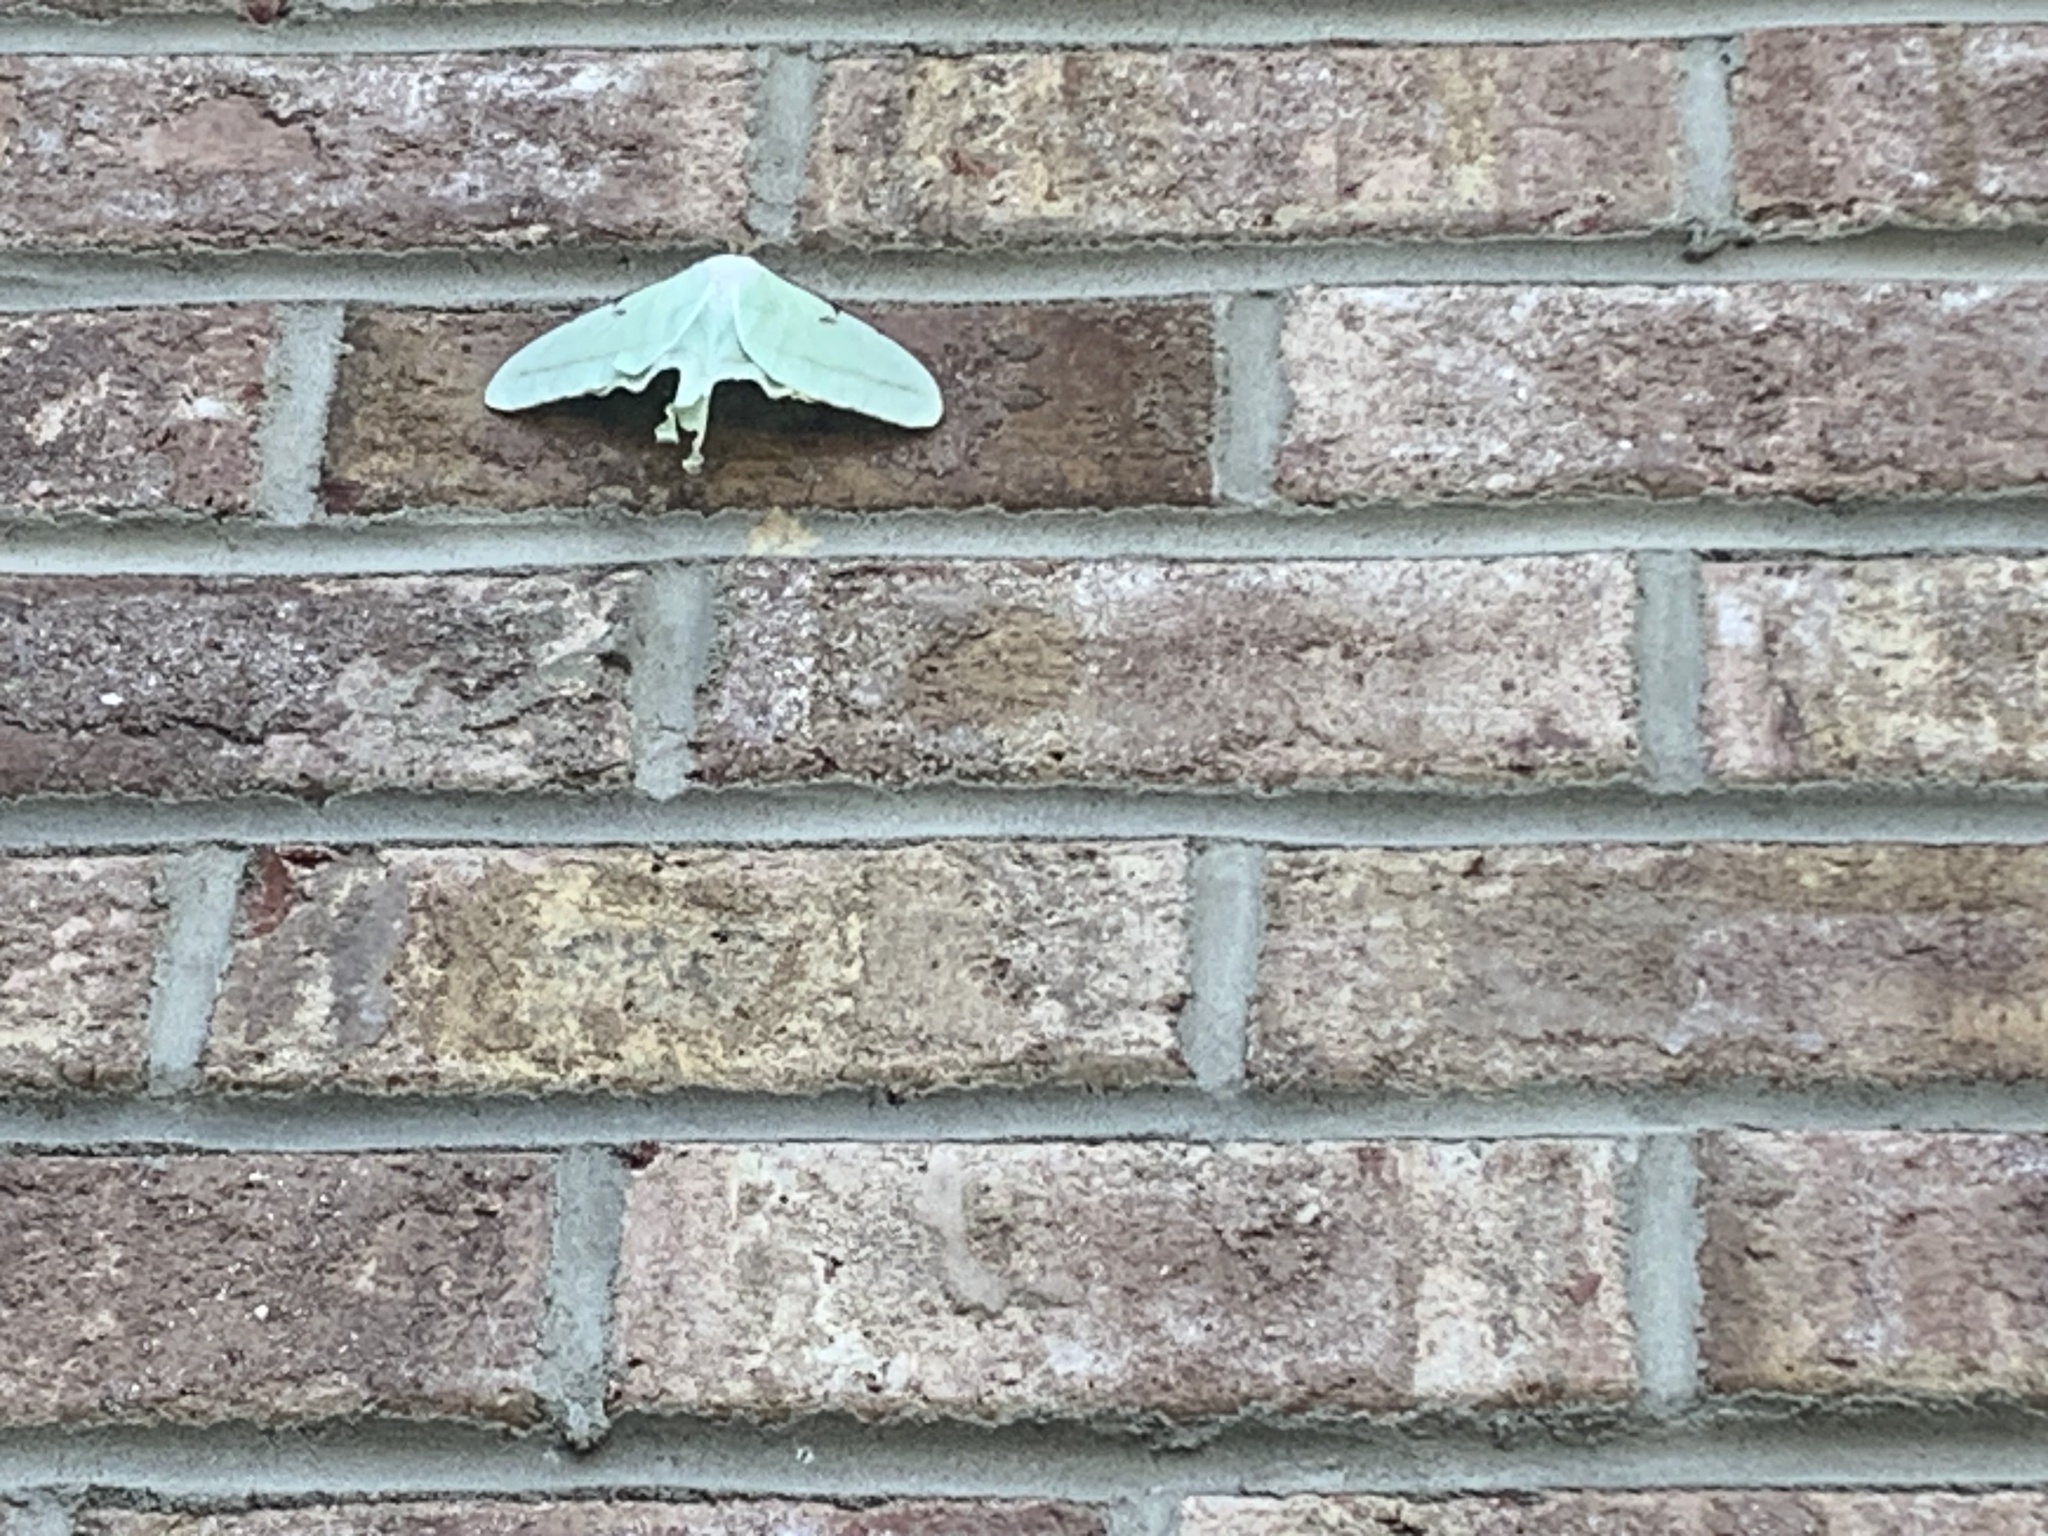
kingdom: Animalia
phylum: Arthropoda
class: Insecta
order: Lepidoptera
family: Saturniidae
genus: Actias
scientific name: Actias luna
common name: Luna moth
